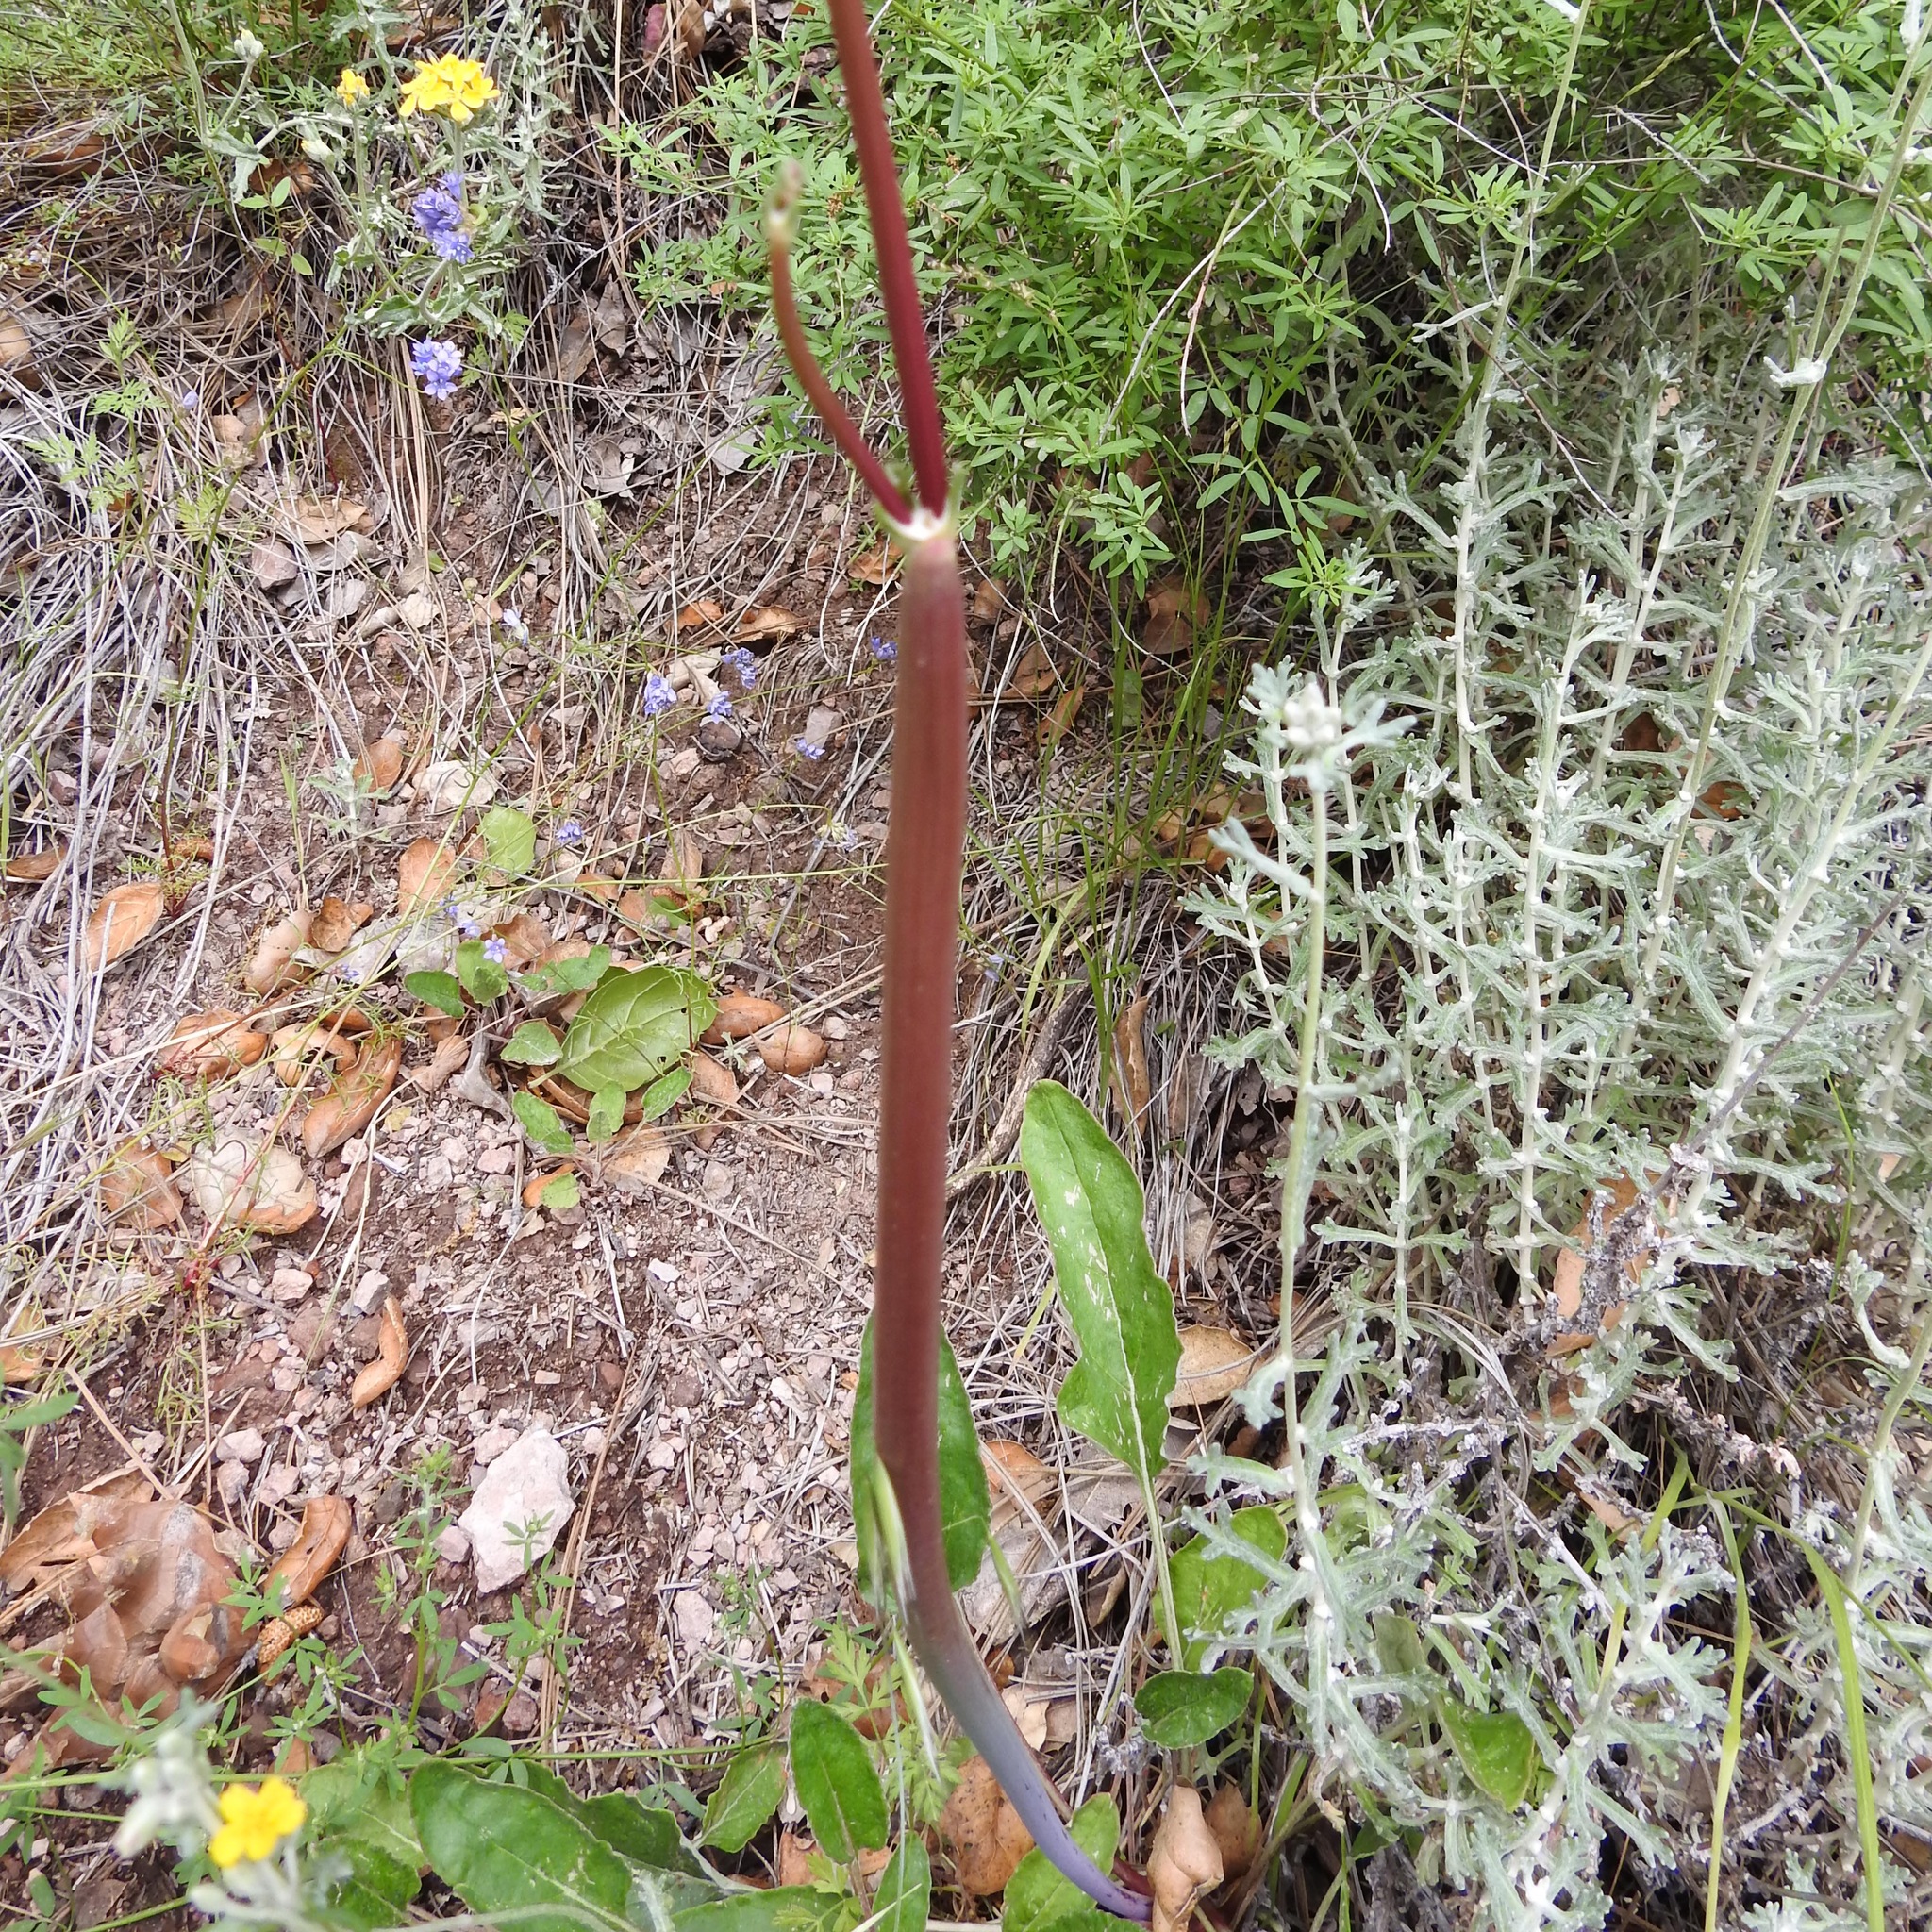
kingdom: Plantae
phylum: Tracheophyta
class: Magnoliopsida
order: Caryophyllales
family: Polygonaceae
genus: Eriogonum
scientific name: Eriogonum nudum
